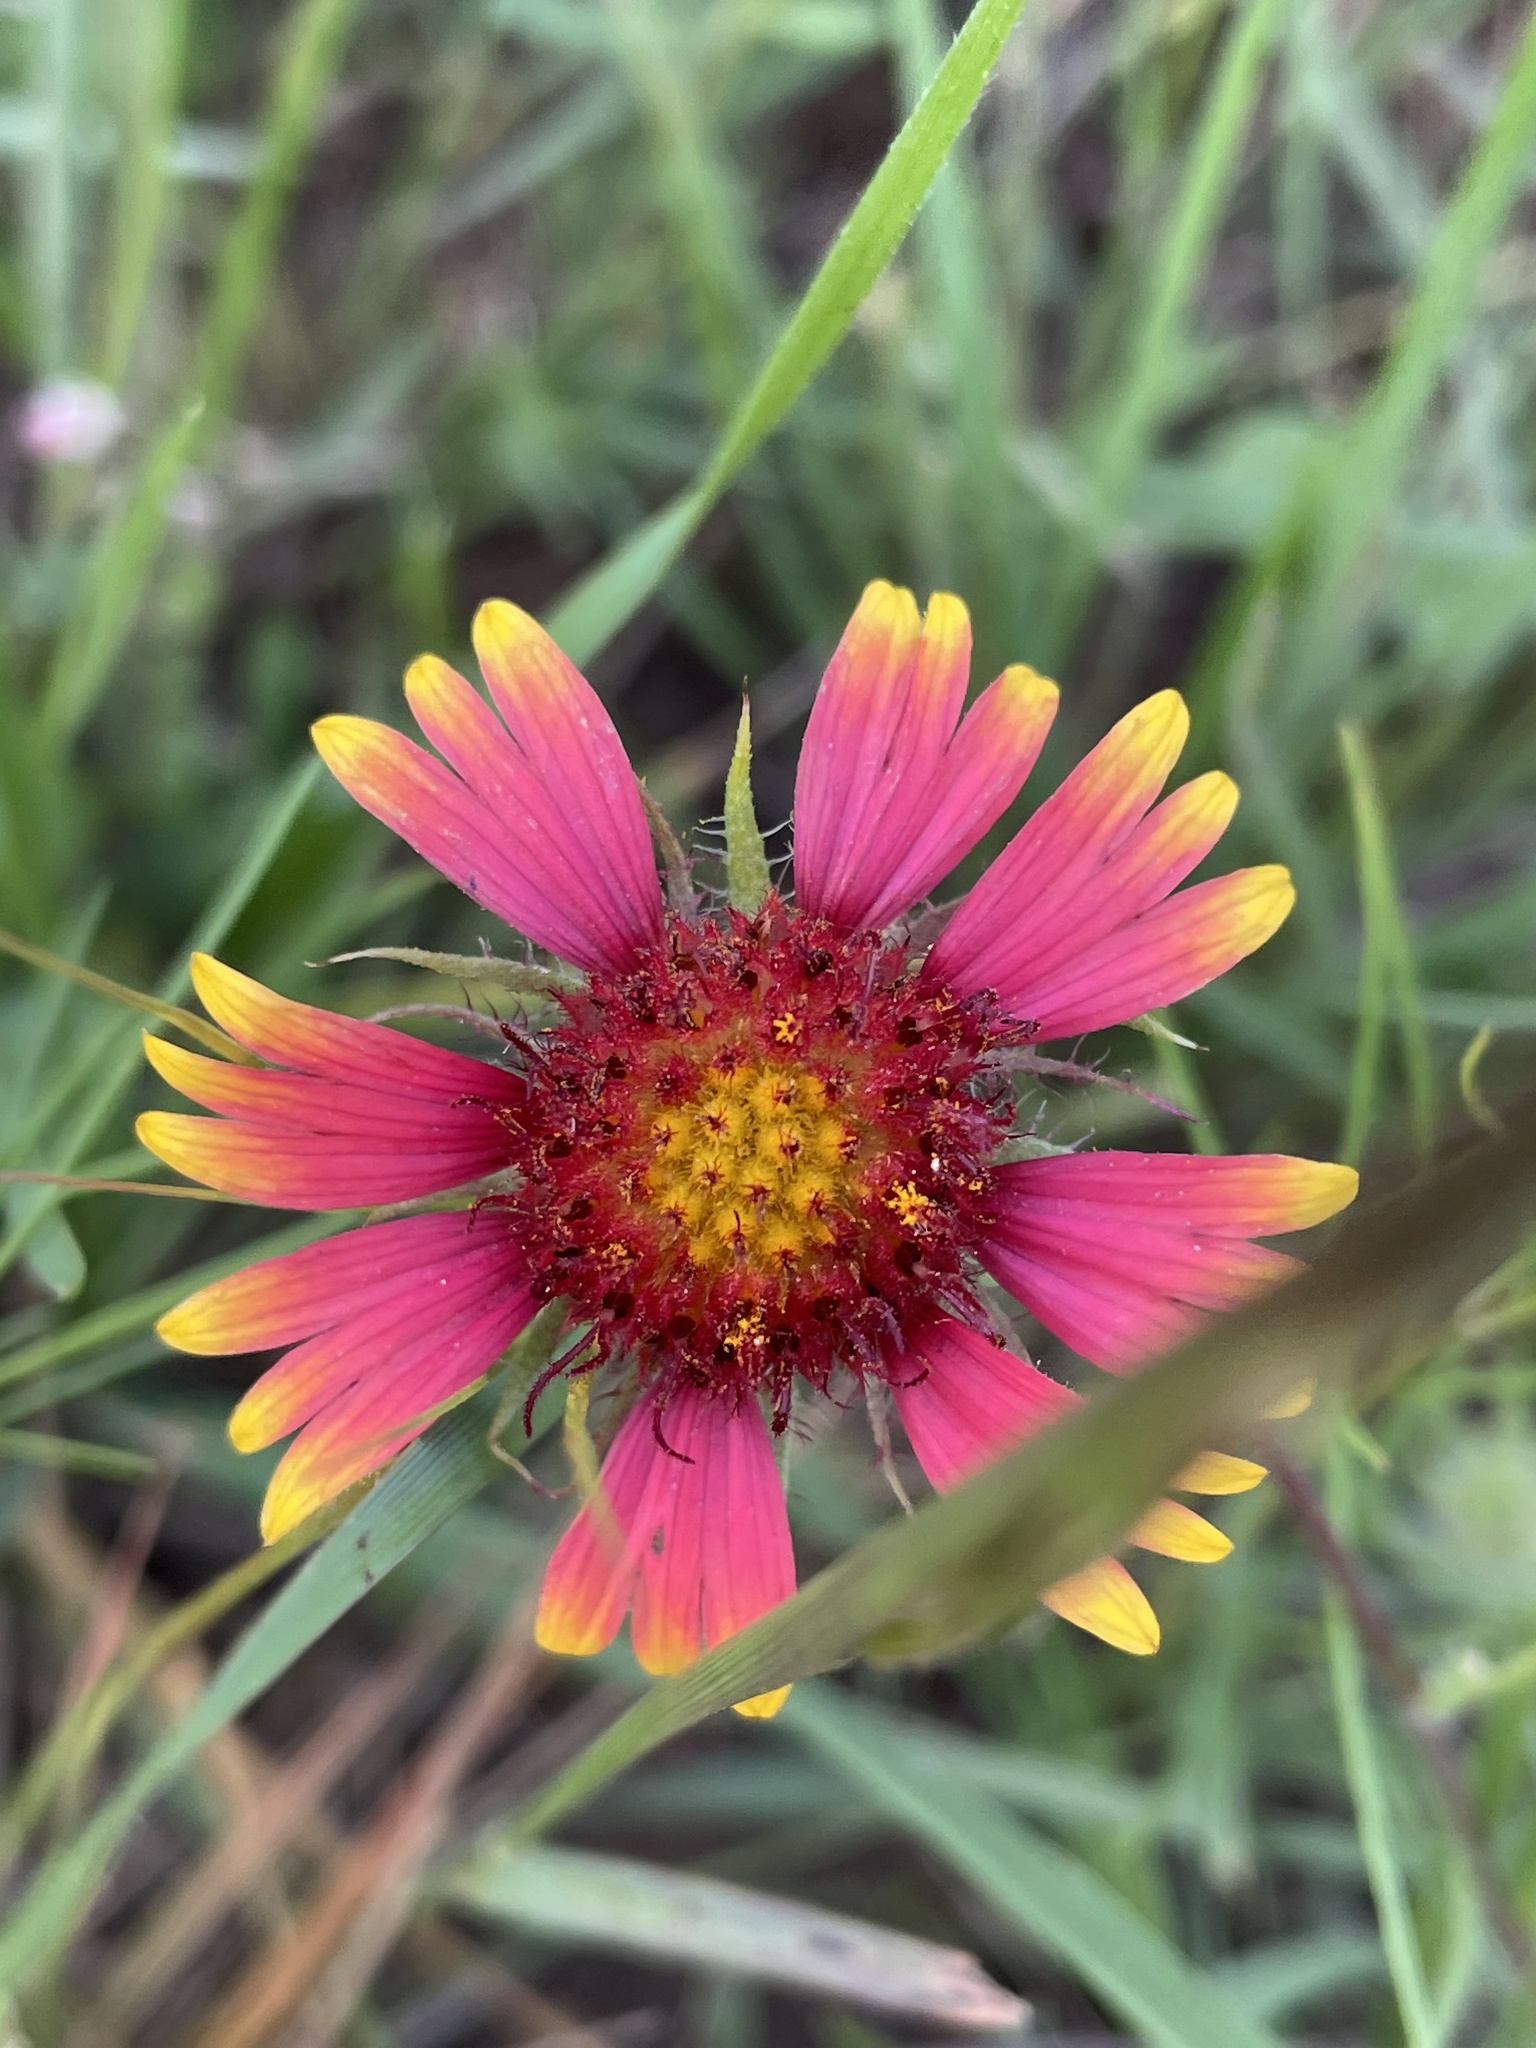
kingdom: Plantae
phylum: Tracheophyta
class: Magnoliopsida
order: Asterales
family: Asteraceae
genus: Gaillardia
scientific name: Gaillardia pulchella
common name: Firewheel
